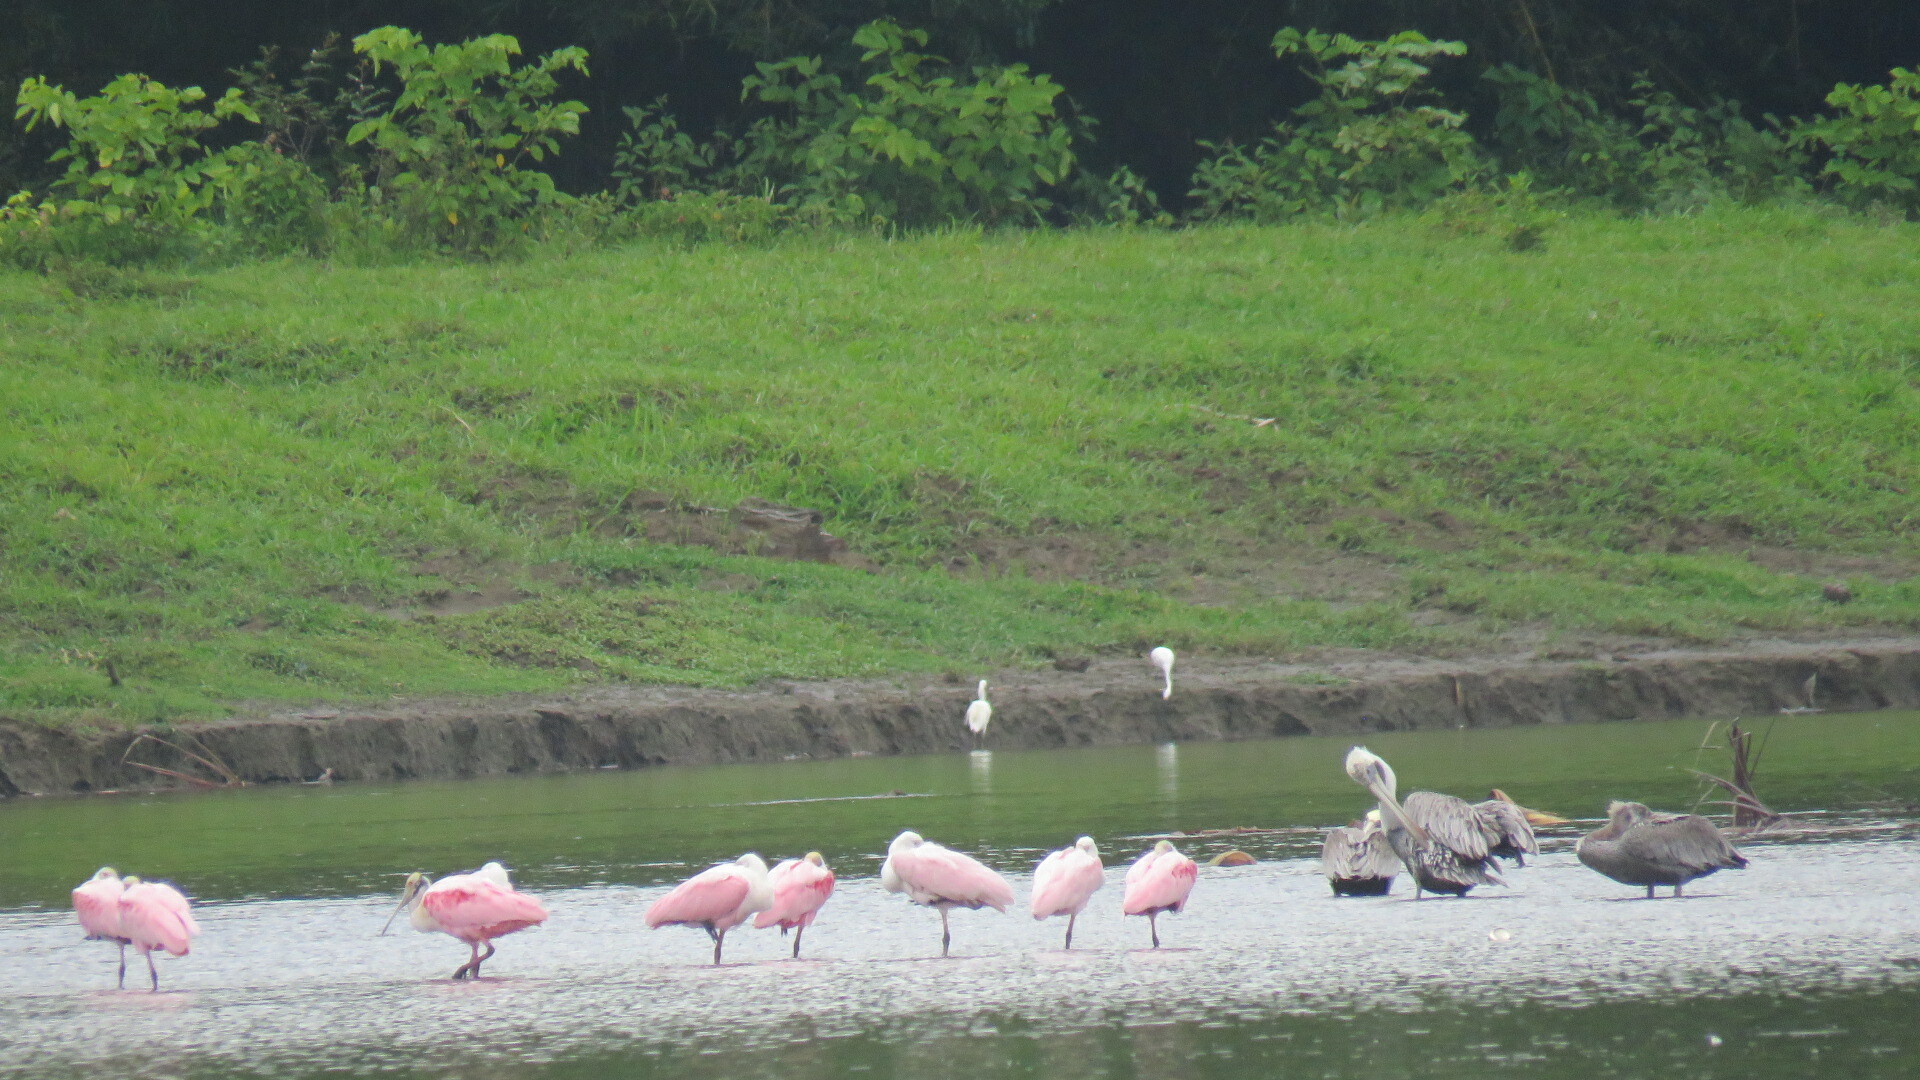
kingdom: Animalia
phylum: Chordata
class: Aves
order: Pelecaniformes
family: Threskiornithidae
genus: Platalea
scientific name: Platalea ajaja
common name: Roseate spoonbill
